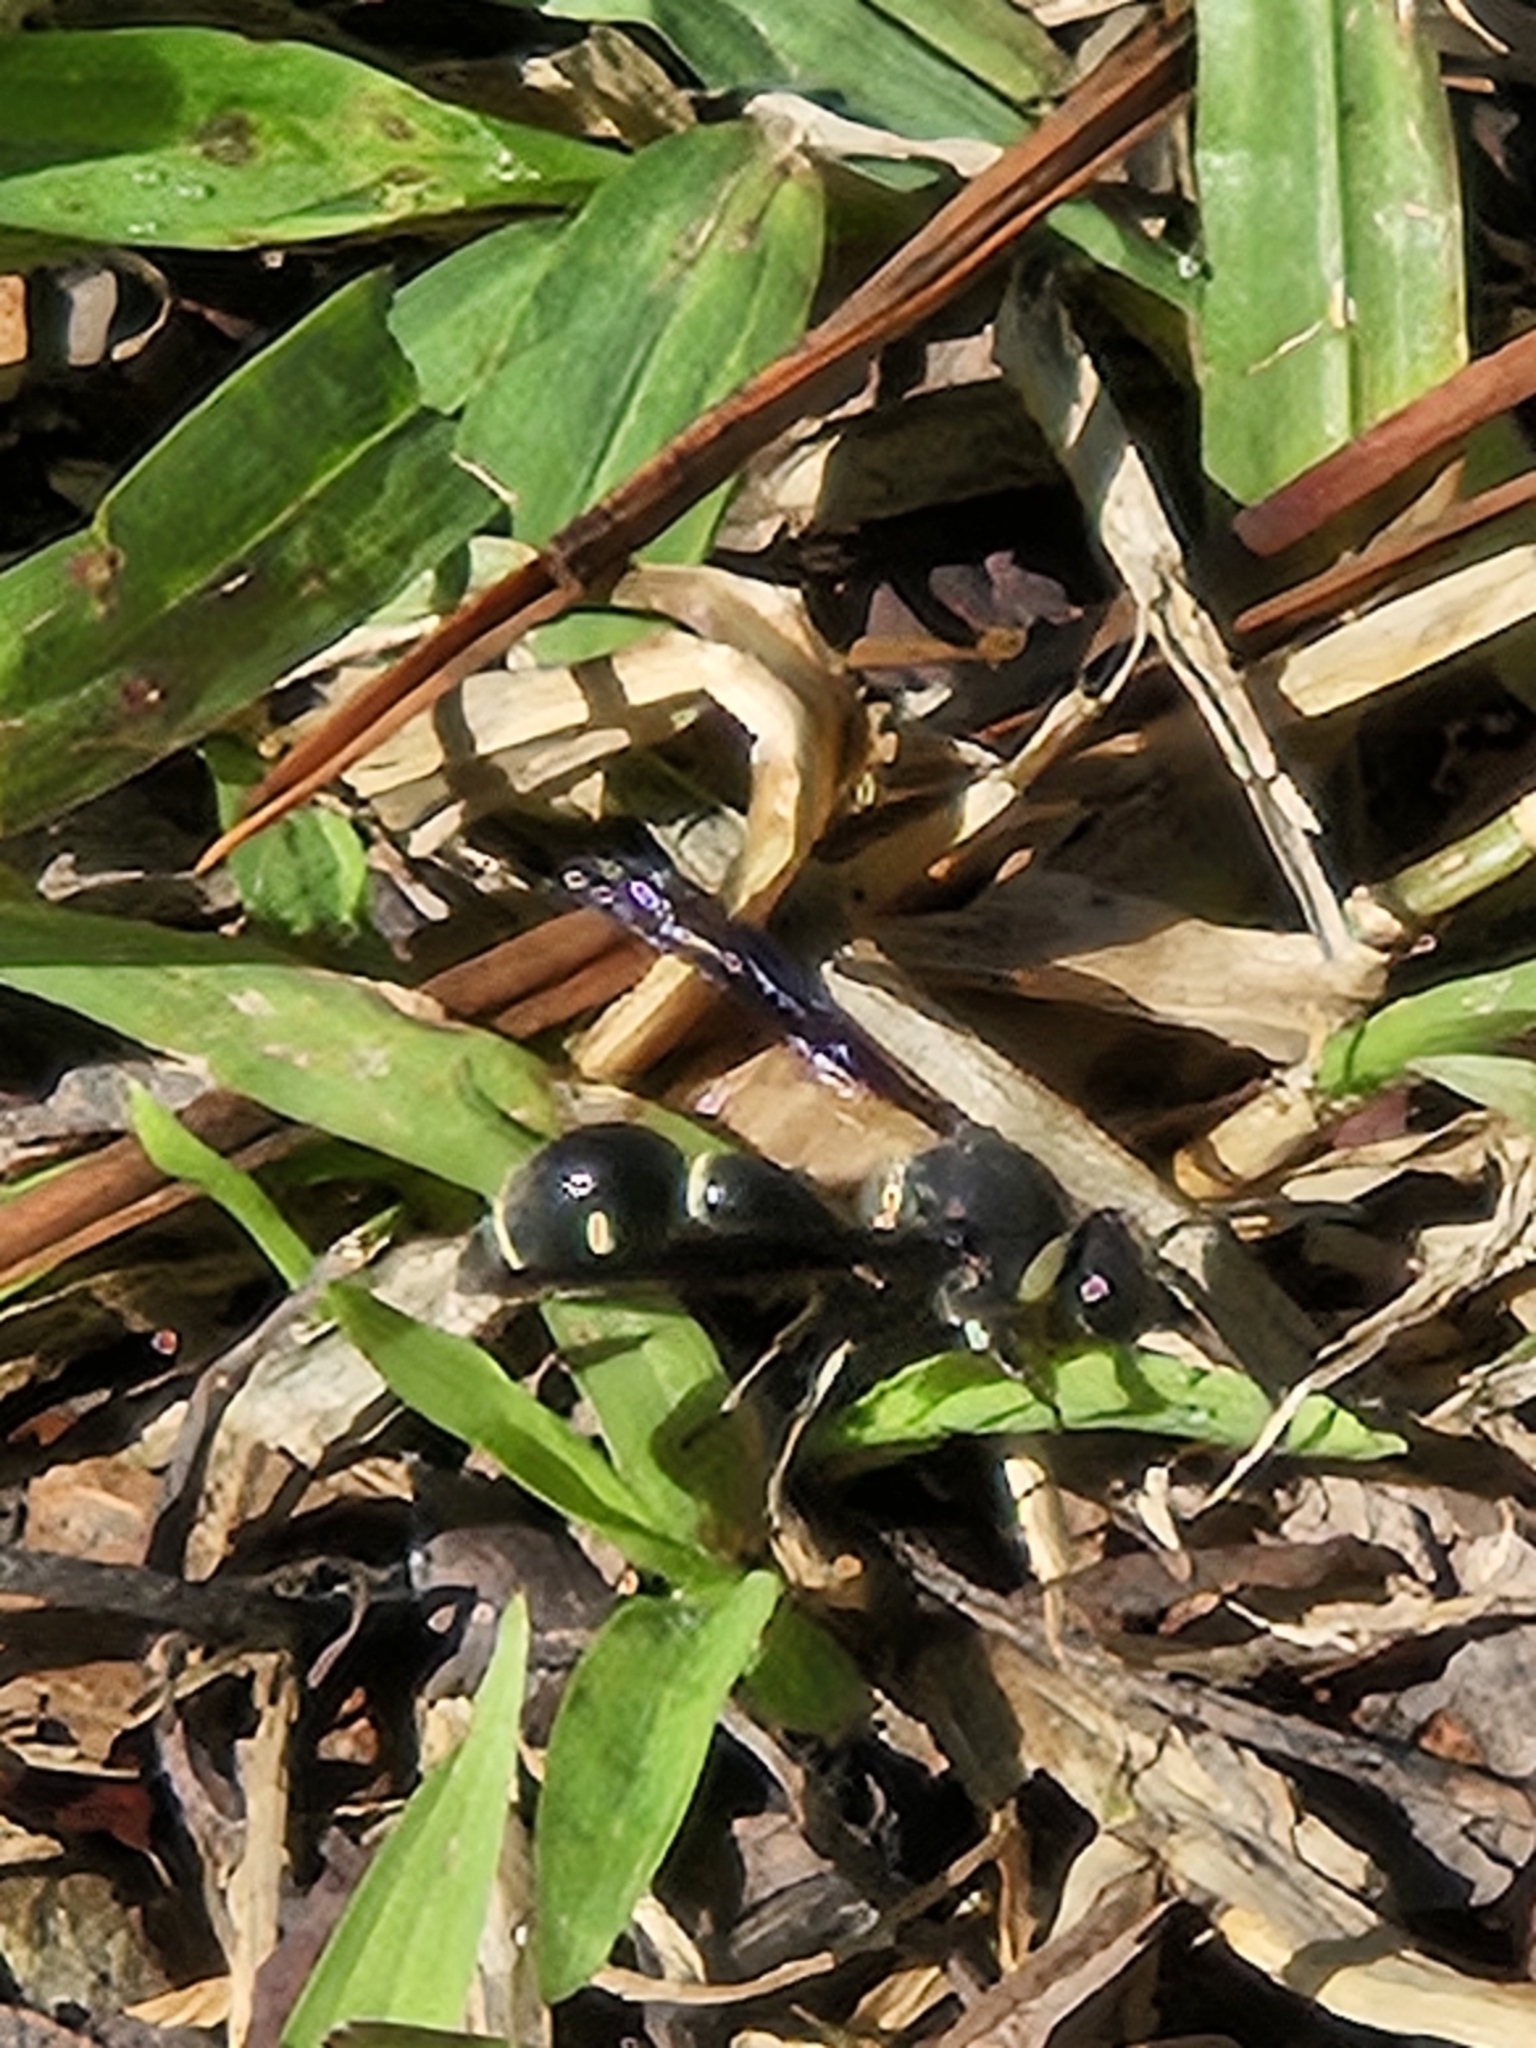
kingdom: Animalia
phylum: Arthropoda
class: Insecta
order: Hymenoptera
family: Vespidae
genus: Eumenes
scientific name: Eumenes fraternus
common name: Fraternal potter wasp
